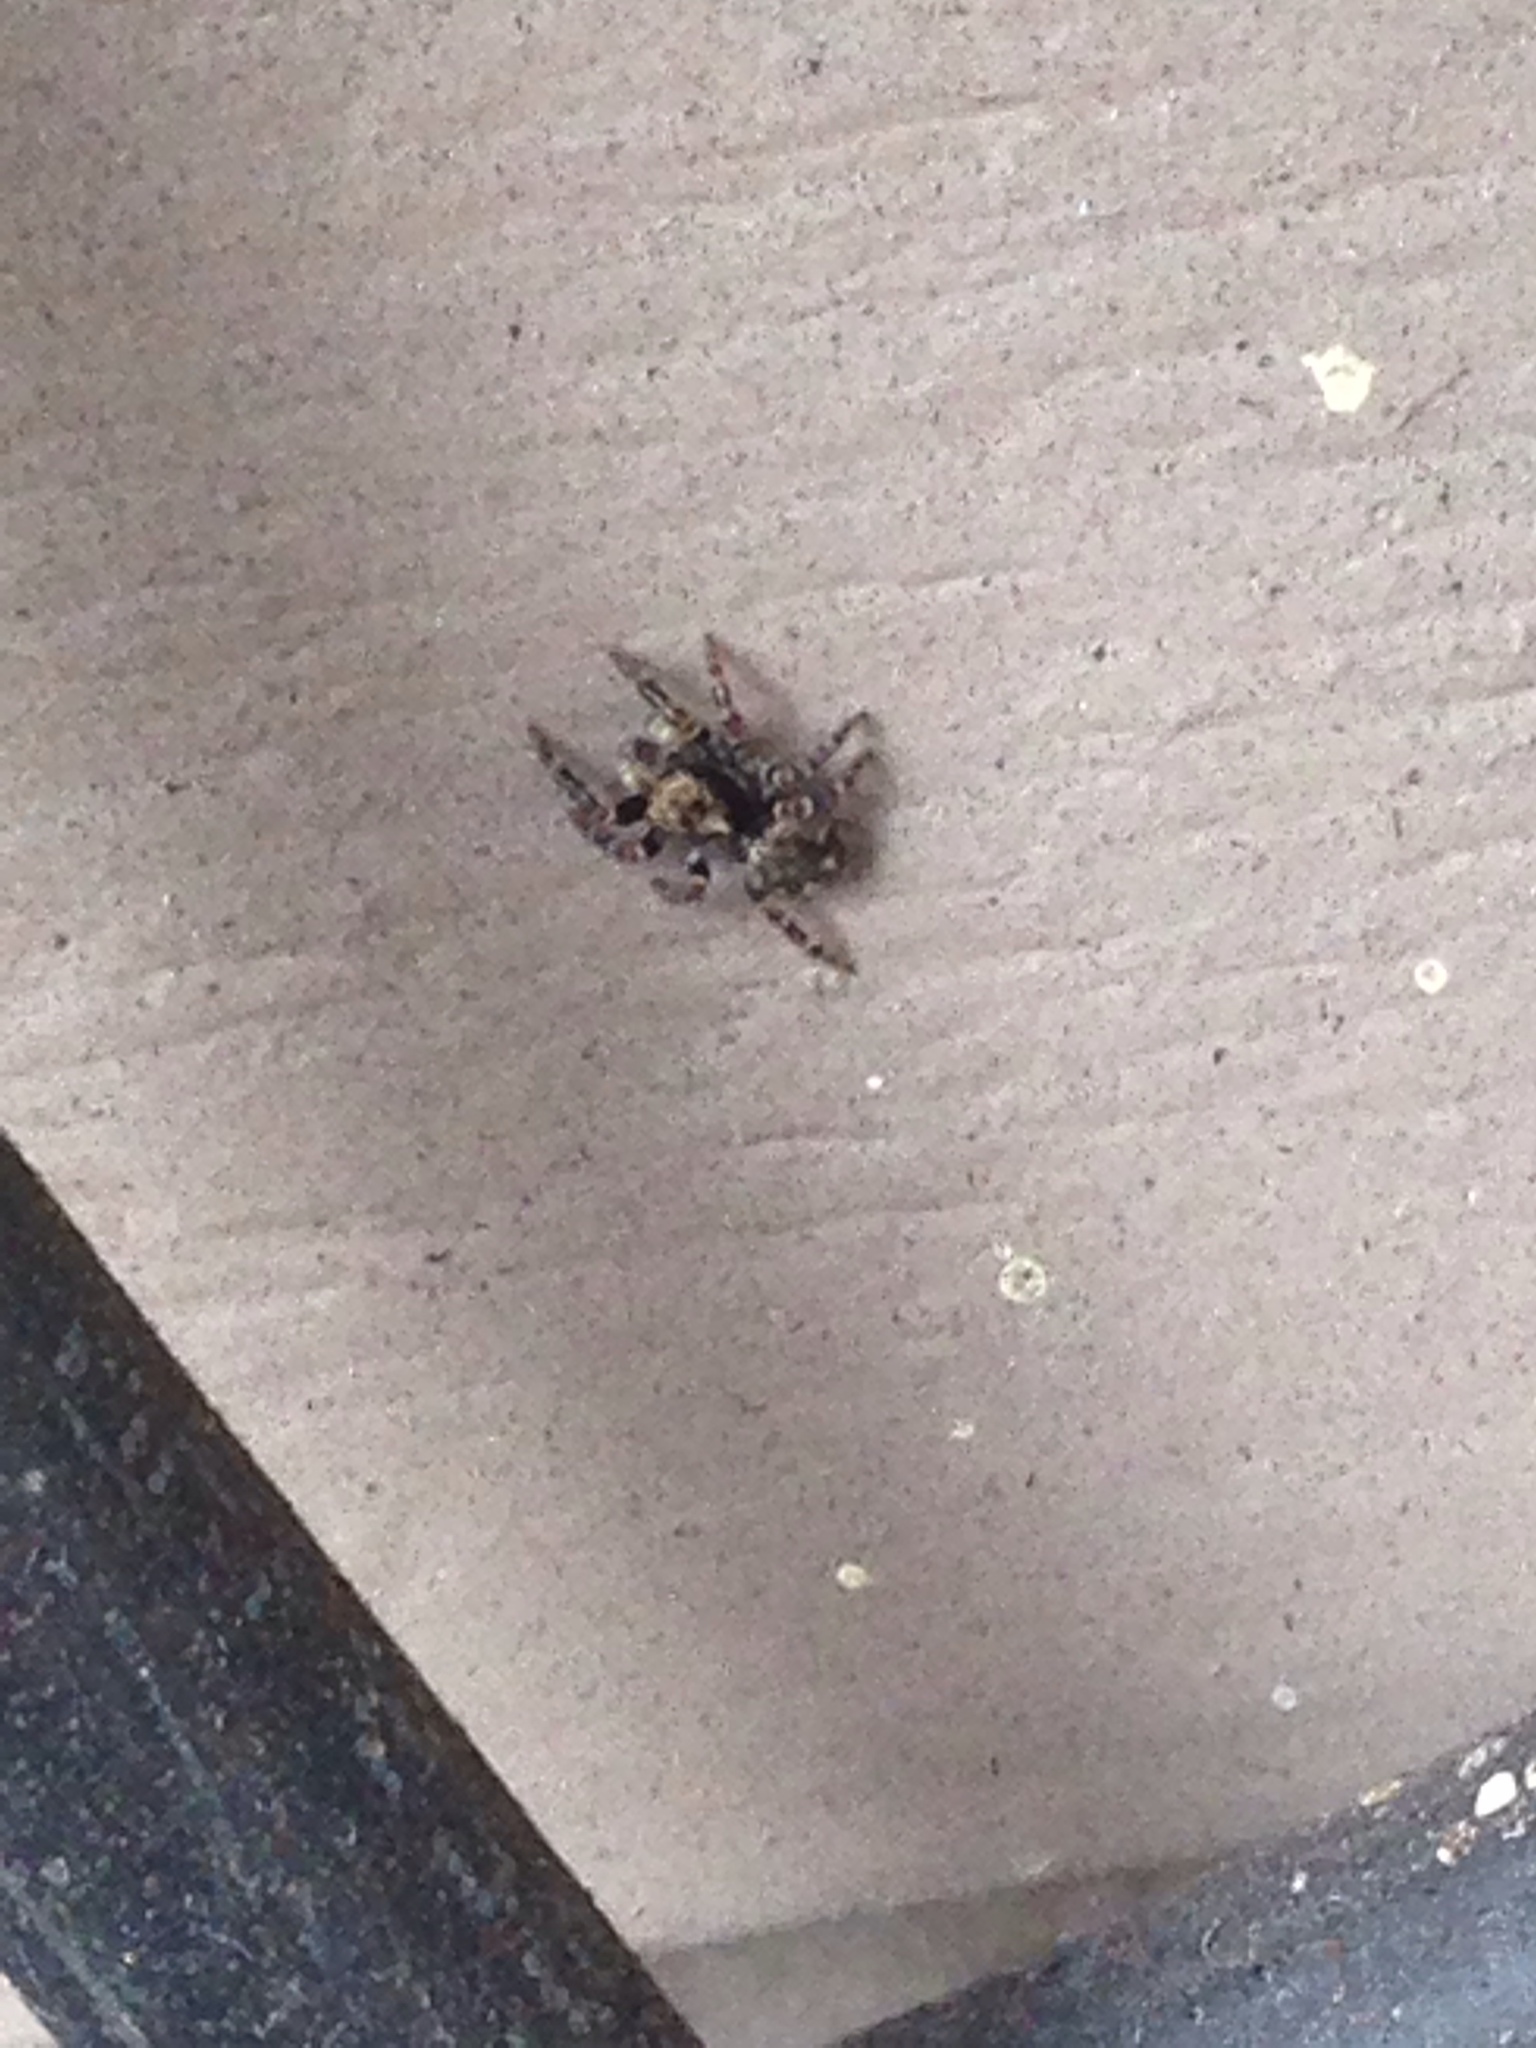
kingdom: Animalia
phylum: Arthropoda
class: Arachnida
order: Araneae
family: Salticidae
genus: Pseudeuophrys
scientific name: Pseudeuophrys erratica
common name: Jumping spider
